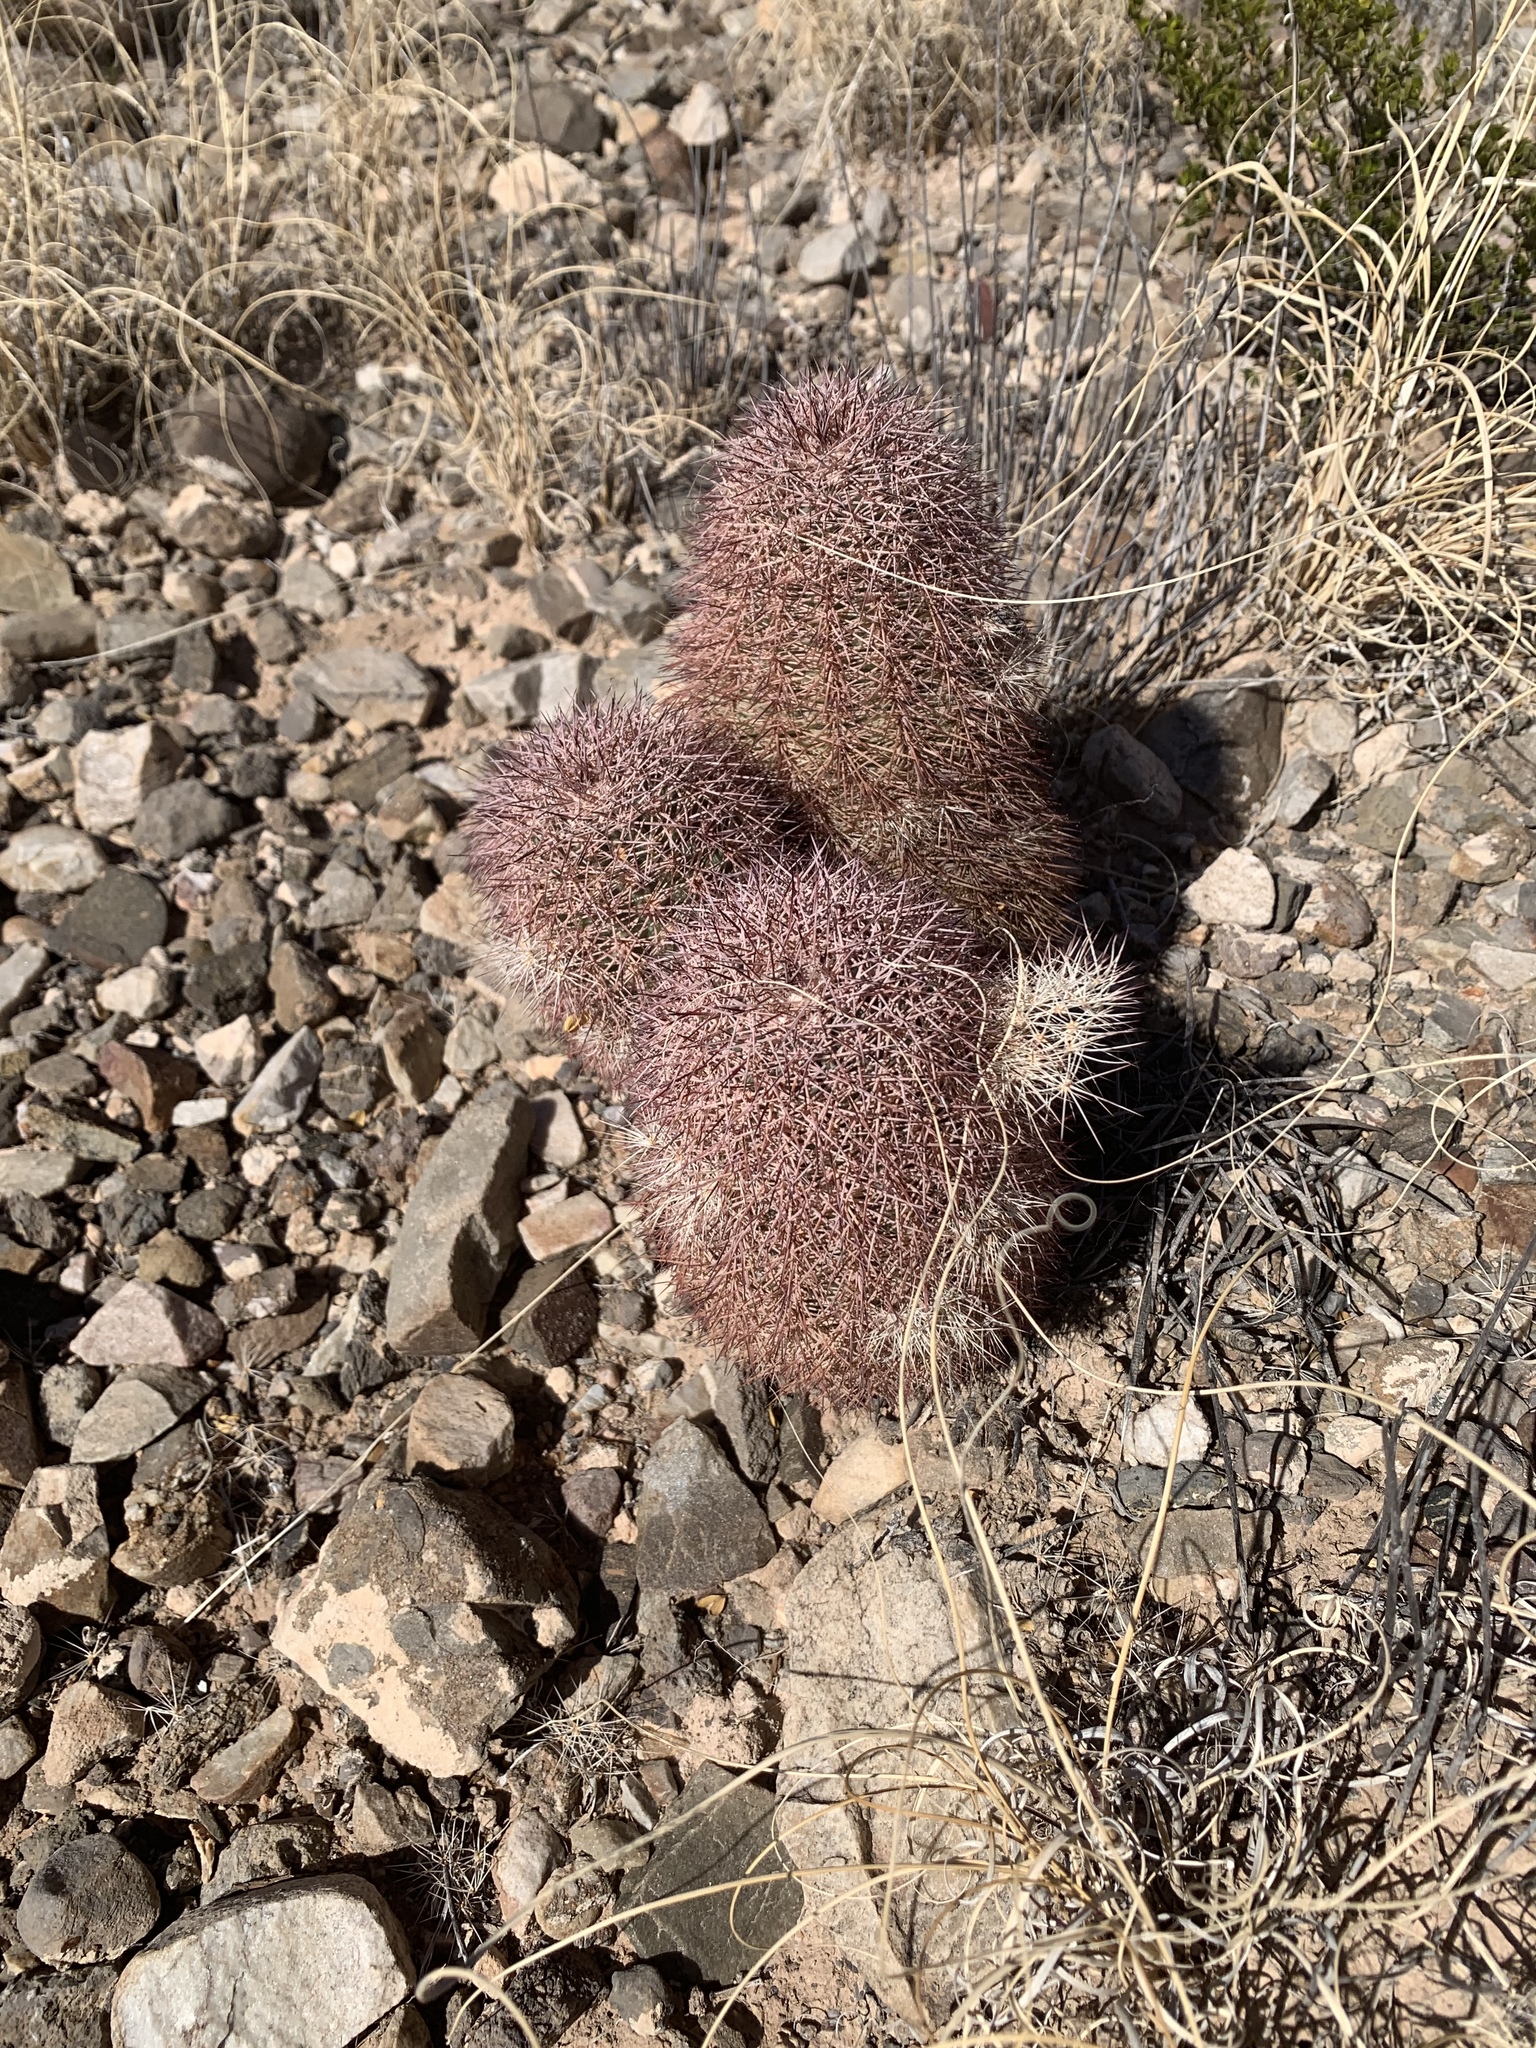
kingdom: Plantae
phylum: Tracheophyta
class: Magnoliopsida
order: Caryophyllales
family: Cactaceae
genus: Echinocereus
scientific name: Echinocereus dasyacanthus
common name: Spiny hedgehog cactus
